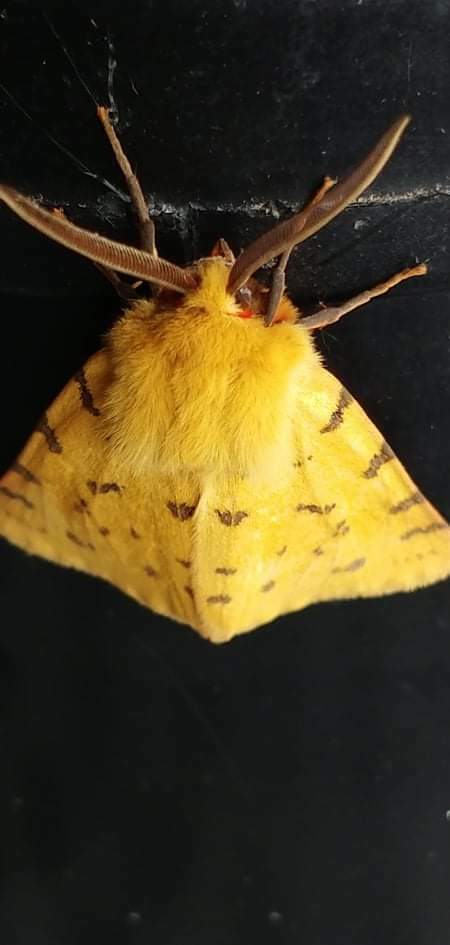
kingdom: Animalia
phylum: Arthropoda
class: Insecta
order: Lepidoptera
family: Erebidae
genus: Rhyparia
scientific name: Rhyparia purpurata
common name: Purple tiger
